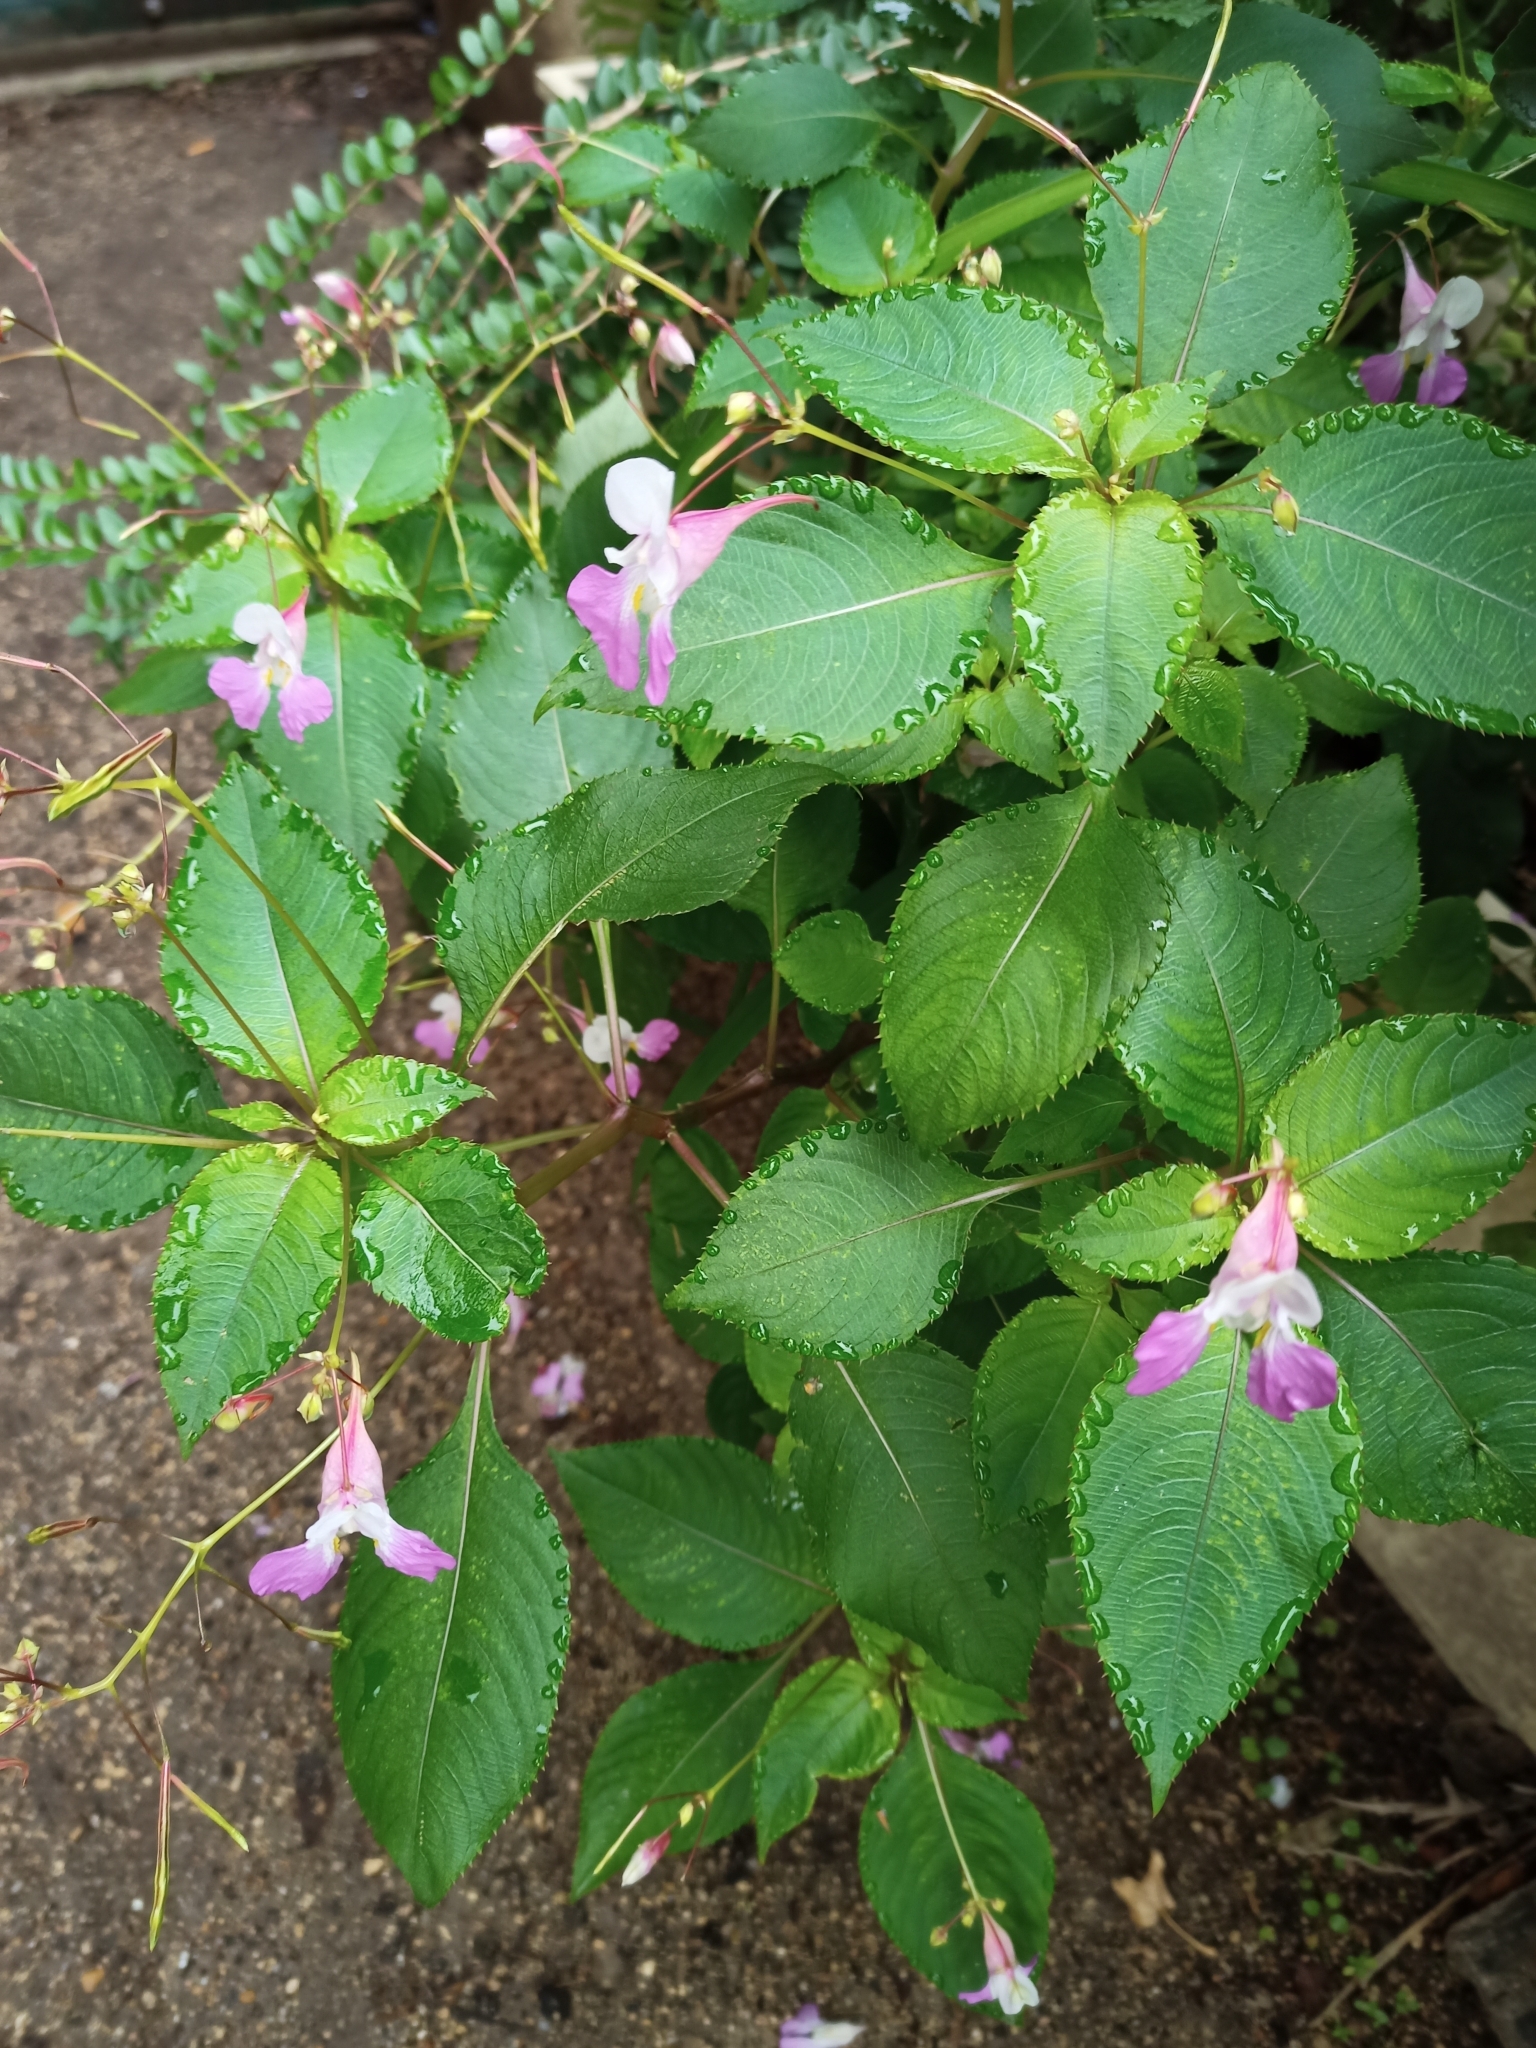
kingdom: Plantae
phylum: Tracheophyta
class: Magnoliopsida
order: Ericales
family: Balsaminaceae
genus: Impatiens
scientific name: Impatiens balfourii
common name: Balfour's touch-me-not
